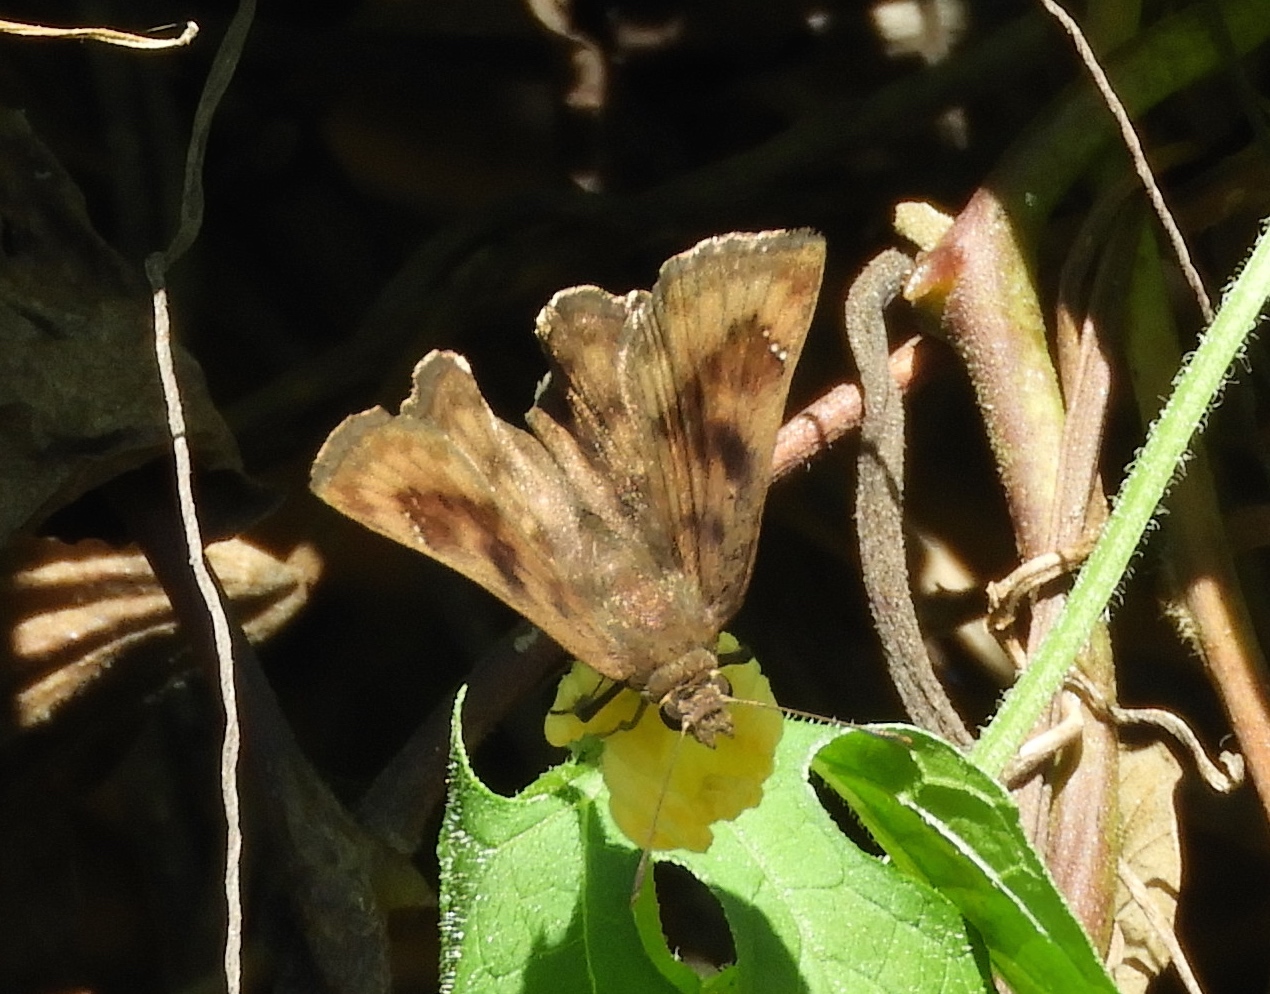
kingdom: Animalia
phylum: Arthropoda
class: Insecta
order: Lepidoptera
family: Hesperiidae
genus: Nisoniades
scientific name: Nisoniades
